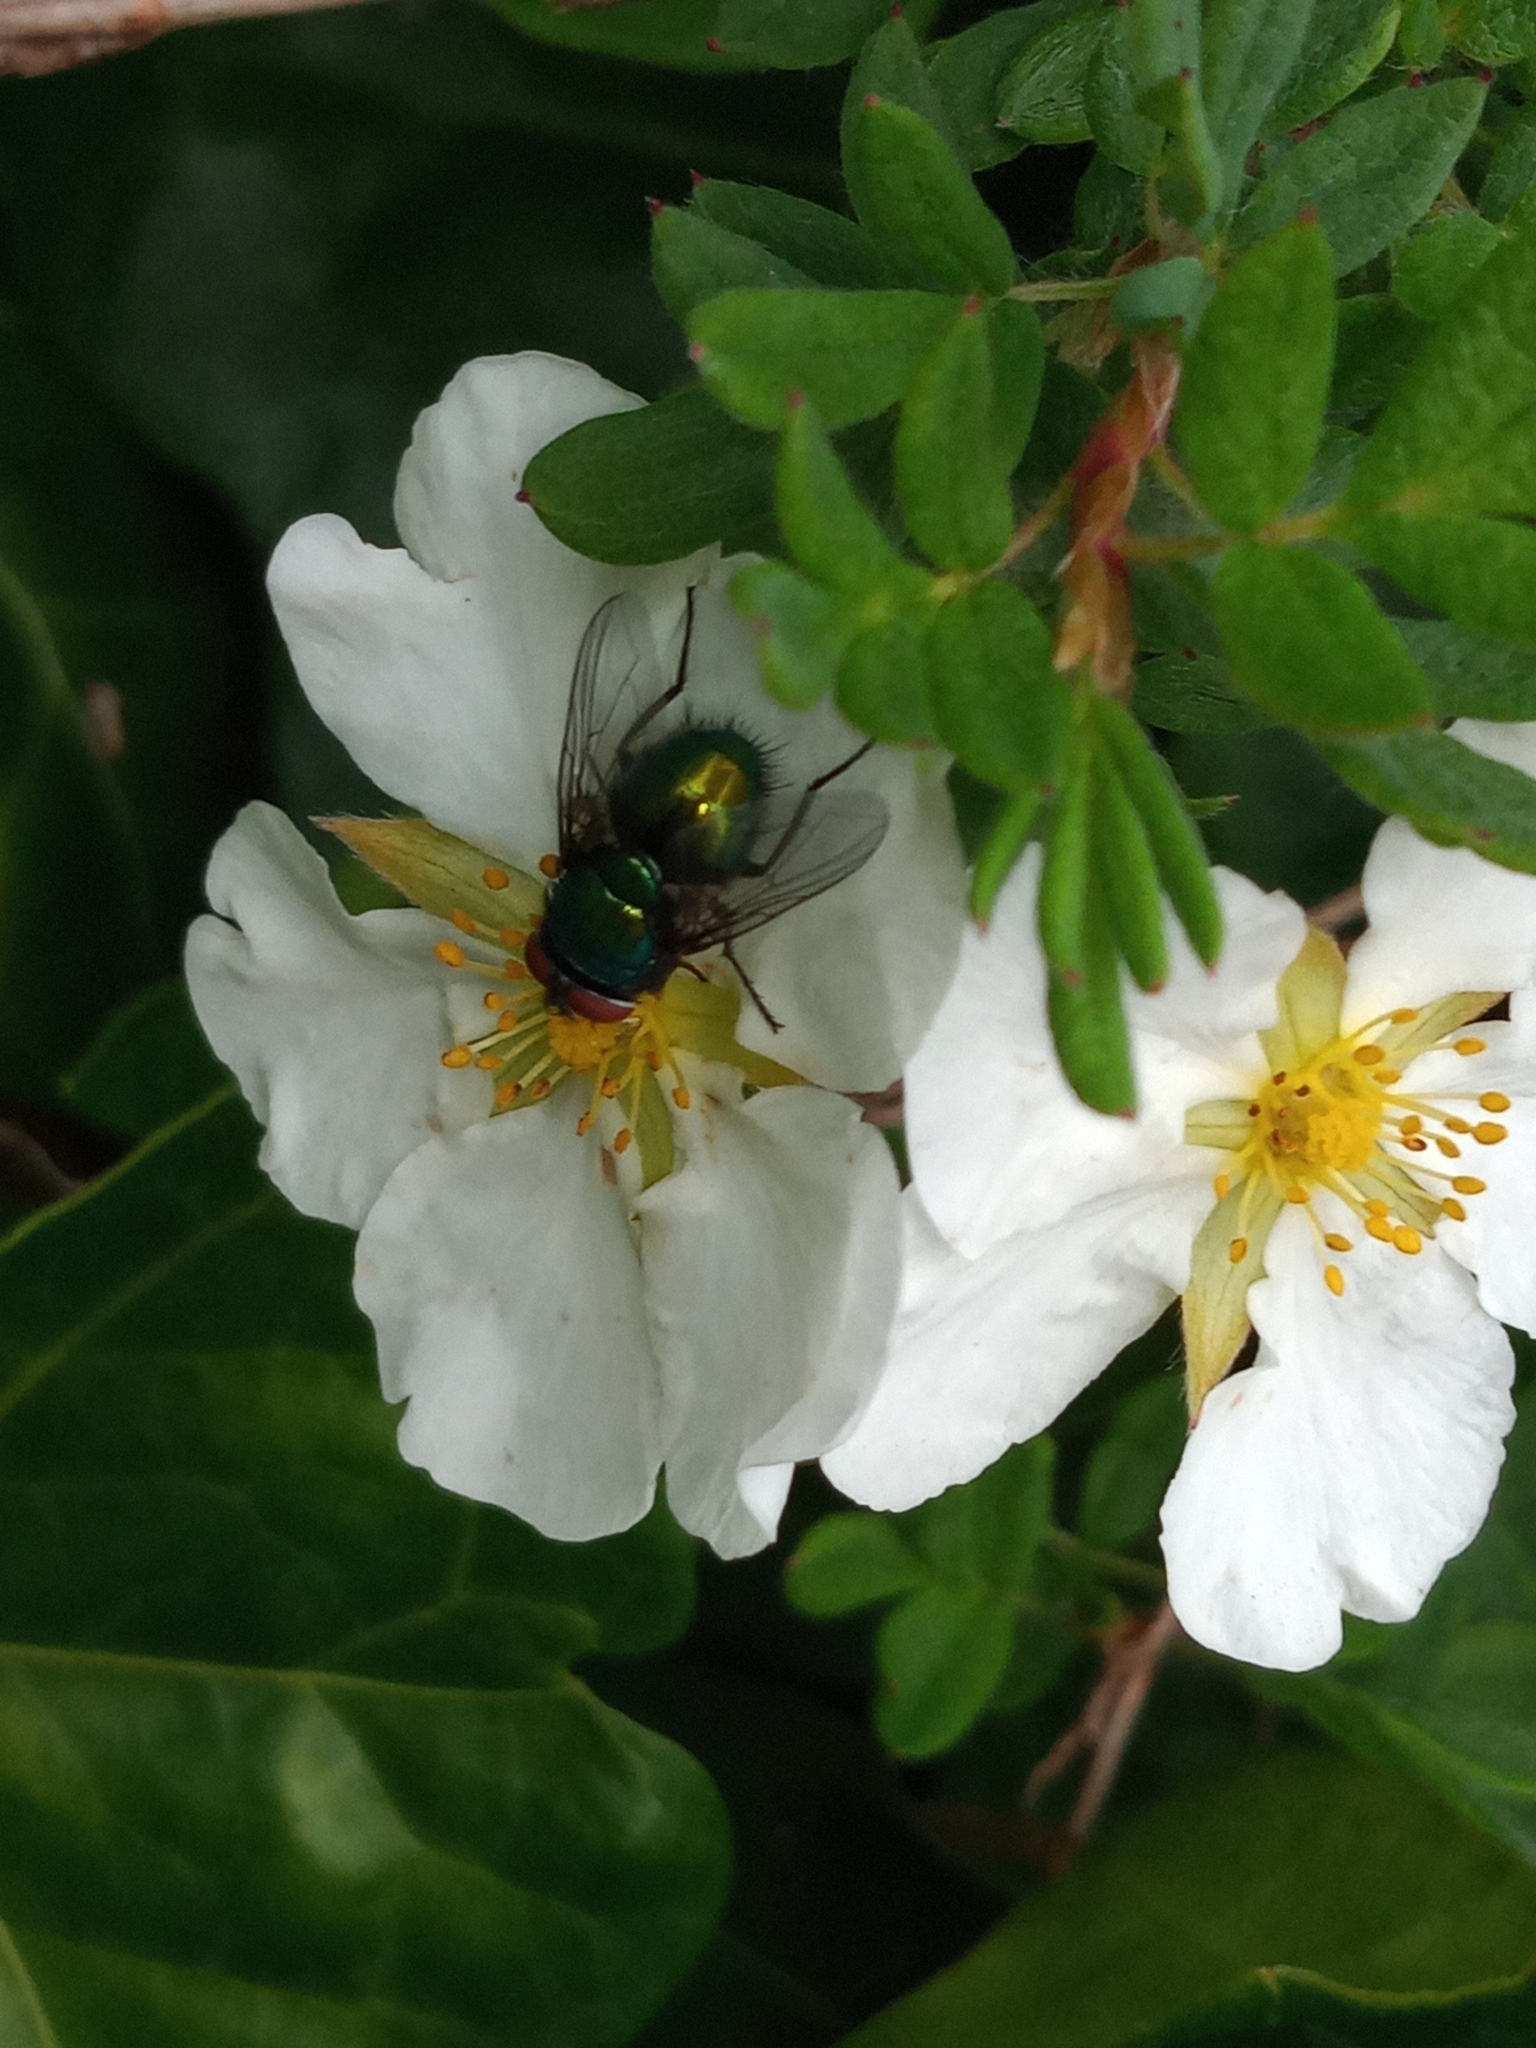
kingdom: Animalia
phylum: Arthropoda
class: Insecta
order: Diptera
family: Calliphoridae
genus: Lucilia
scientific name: Lucilia sericata
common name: Blow fly
